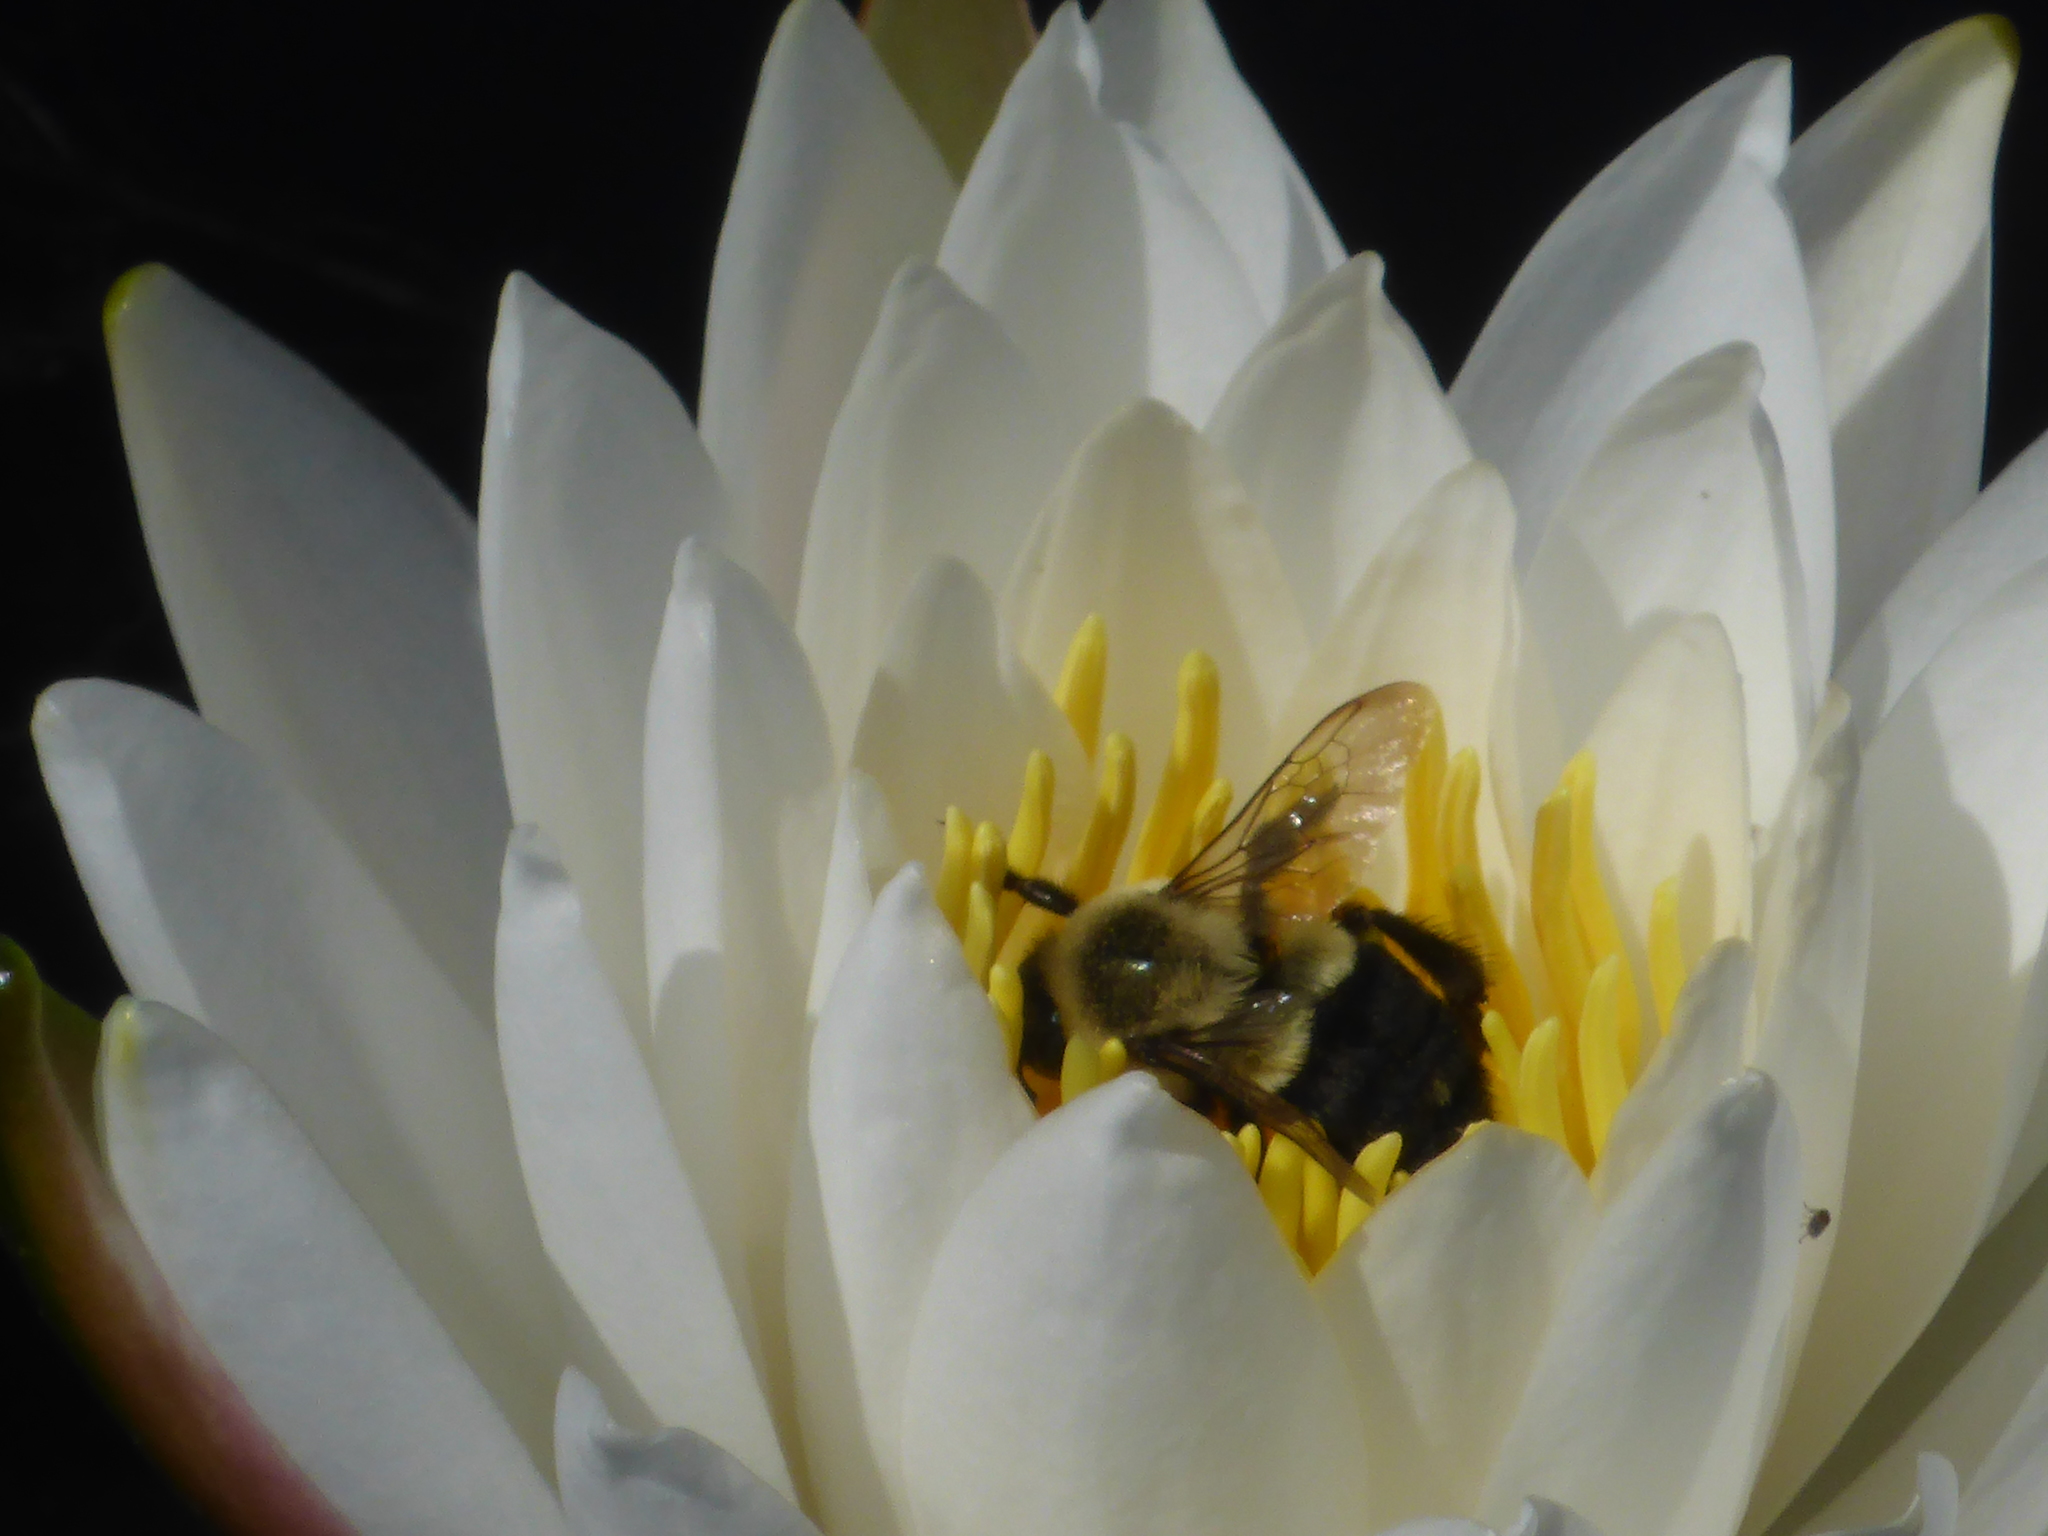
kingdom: Animalia
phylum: Arthropoda
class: Insecta
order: Hymenoptera
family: Apidae
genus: Bombus
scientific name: Bombus impatiens
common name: Common eastern bumble bee
